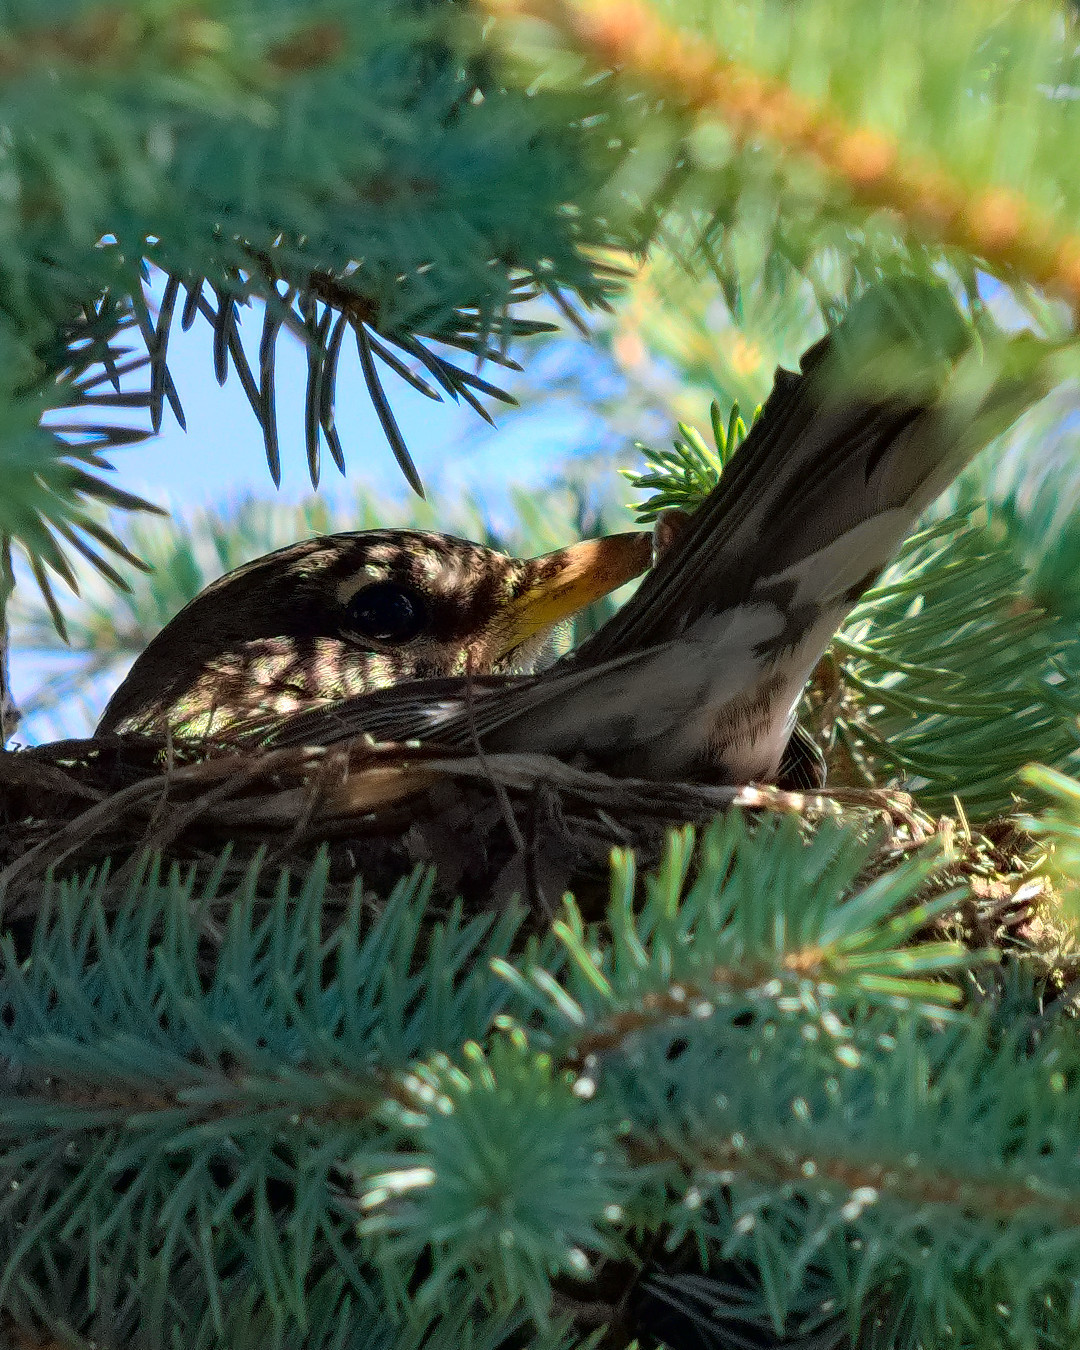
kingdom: Animalia
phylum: Chordata
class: Aves
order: Passeriformes
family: Turdidae
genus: Turdus
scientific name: Turdus migratorius
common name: American robin
